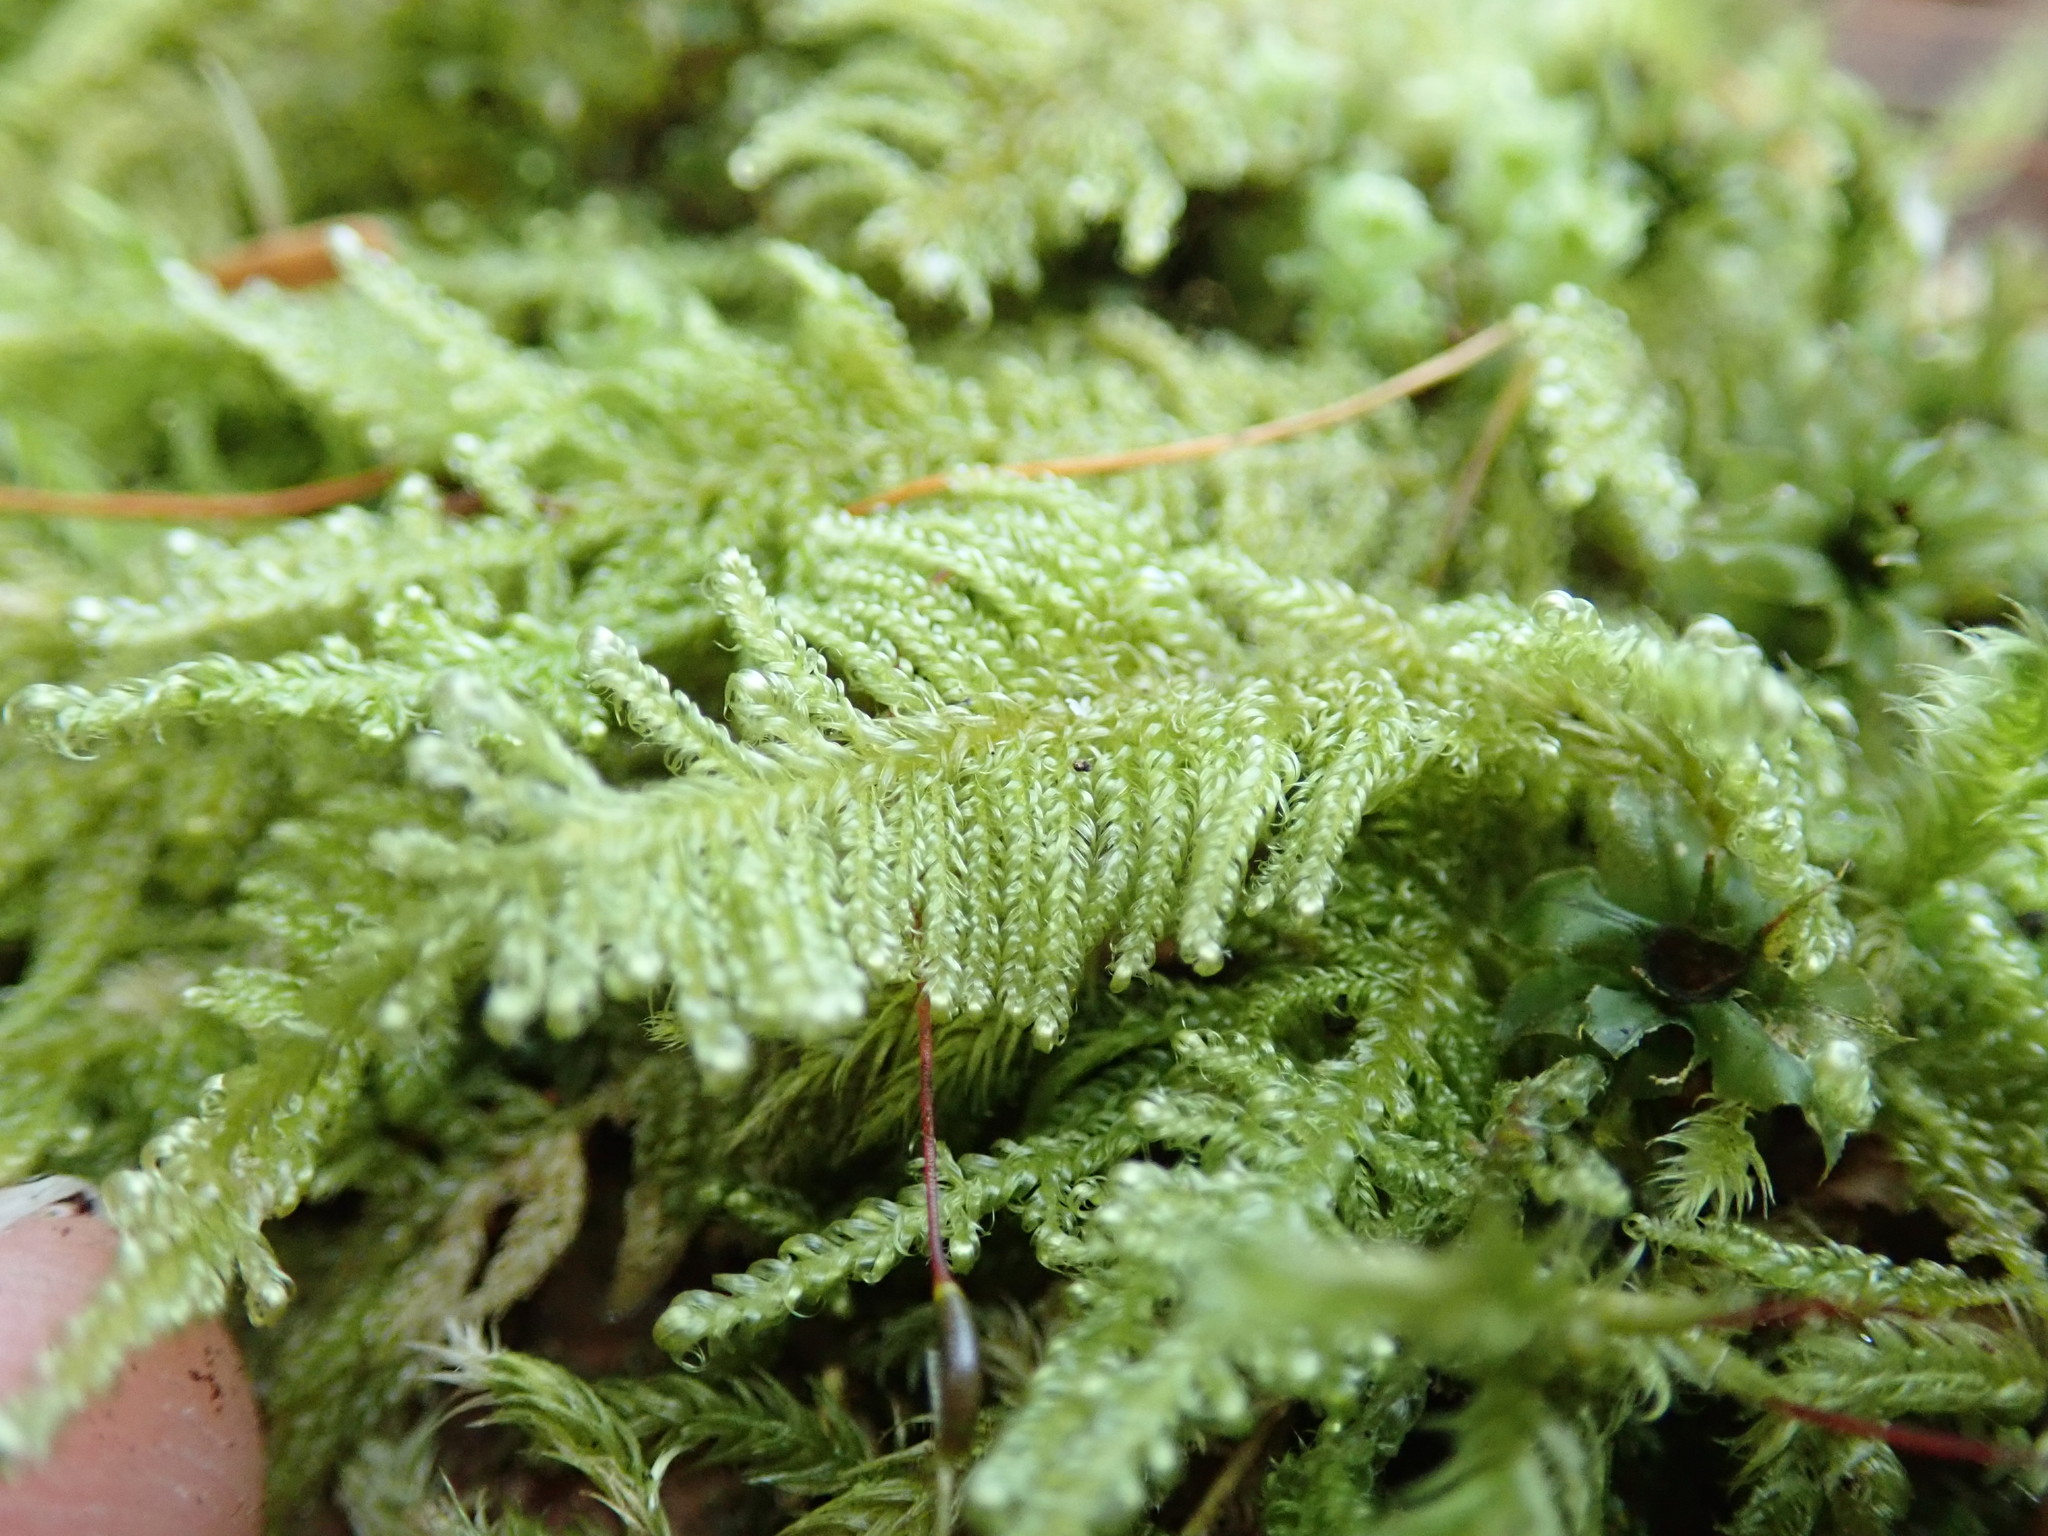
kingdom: Plantae
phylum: Bryophyta
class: Bryopsida
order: Hypnales
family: Stereodontaceae
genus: Stereodon
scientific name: Stereodon subimponens
